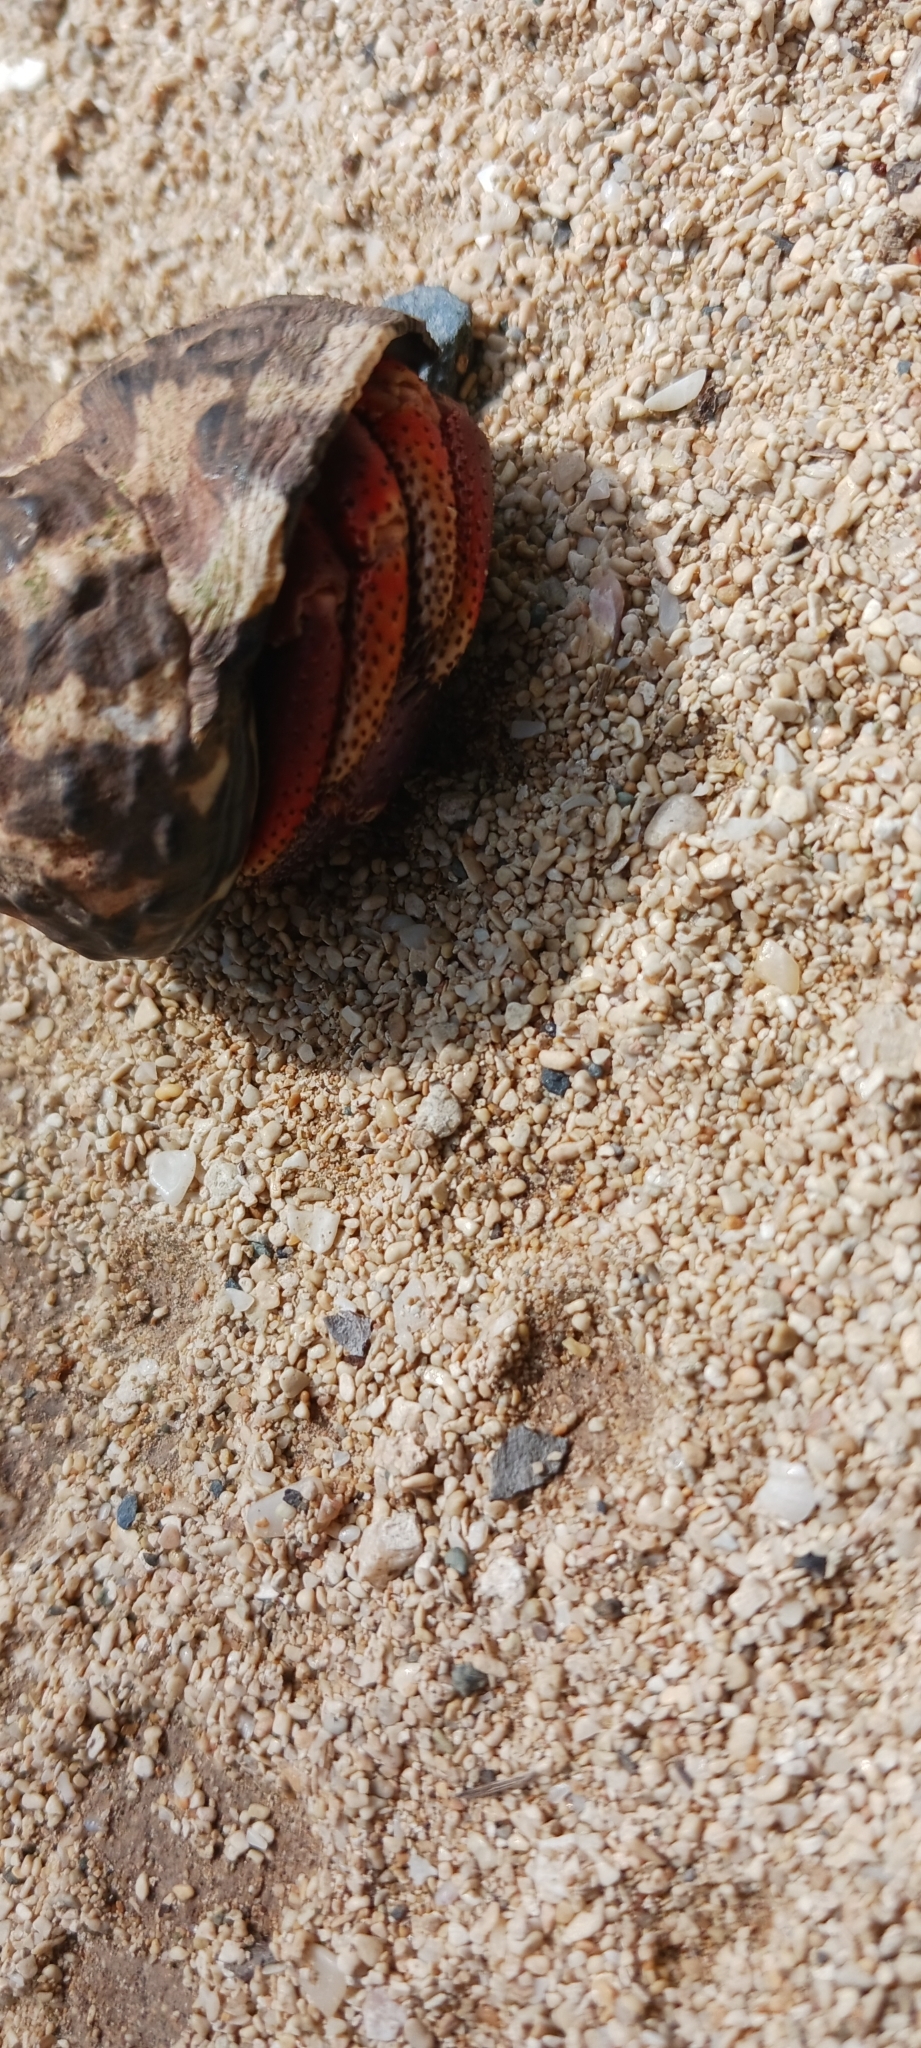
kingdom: Animalia
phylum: Arthropoda
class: Malacostraca
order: Decapoda
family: Coenobitidae
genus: Coenobita
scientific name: Coenobita clypeatus
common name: Caribbean hermit crab
